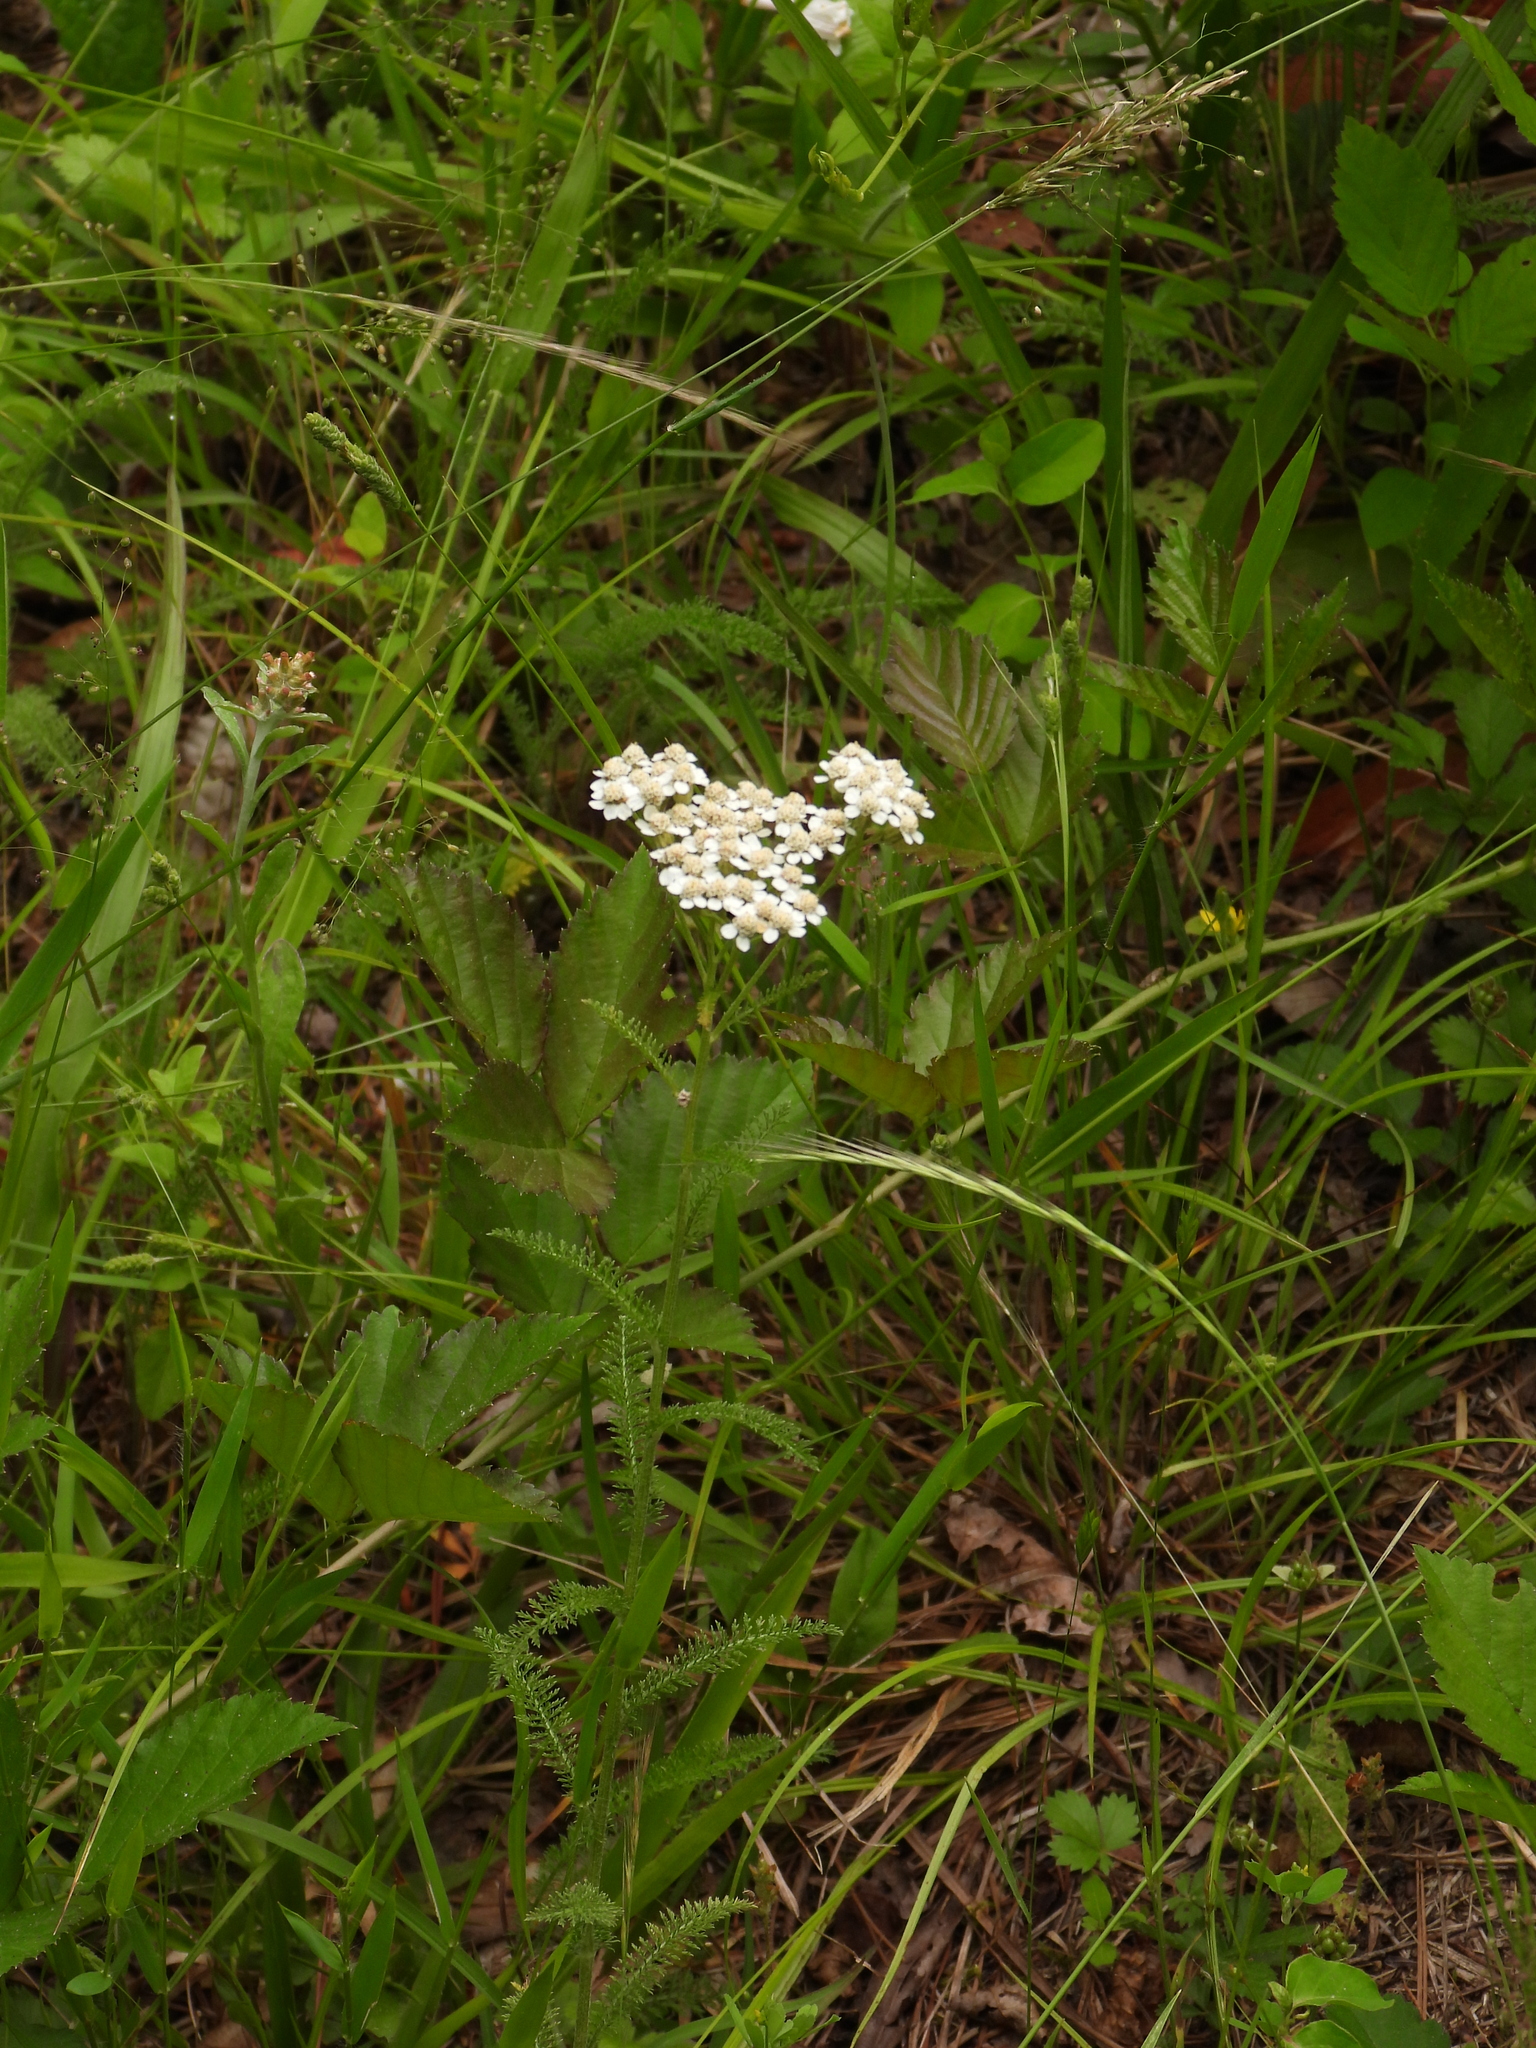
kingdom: Plantae
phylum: Tracheophyta
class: Magnoliopsida
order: Asterales
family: Asteraceae
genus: Achillea
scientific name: Achillea millefolium
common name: Yarrow
